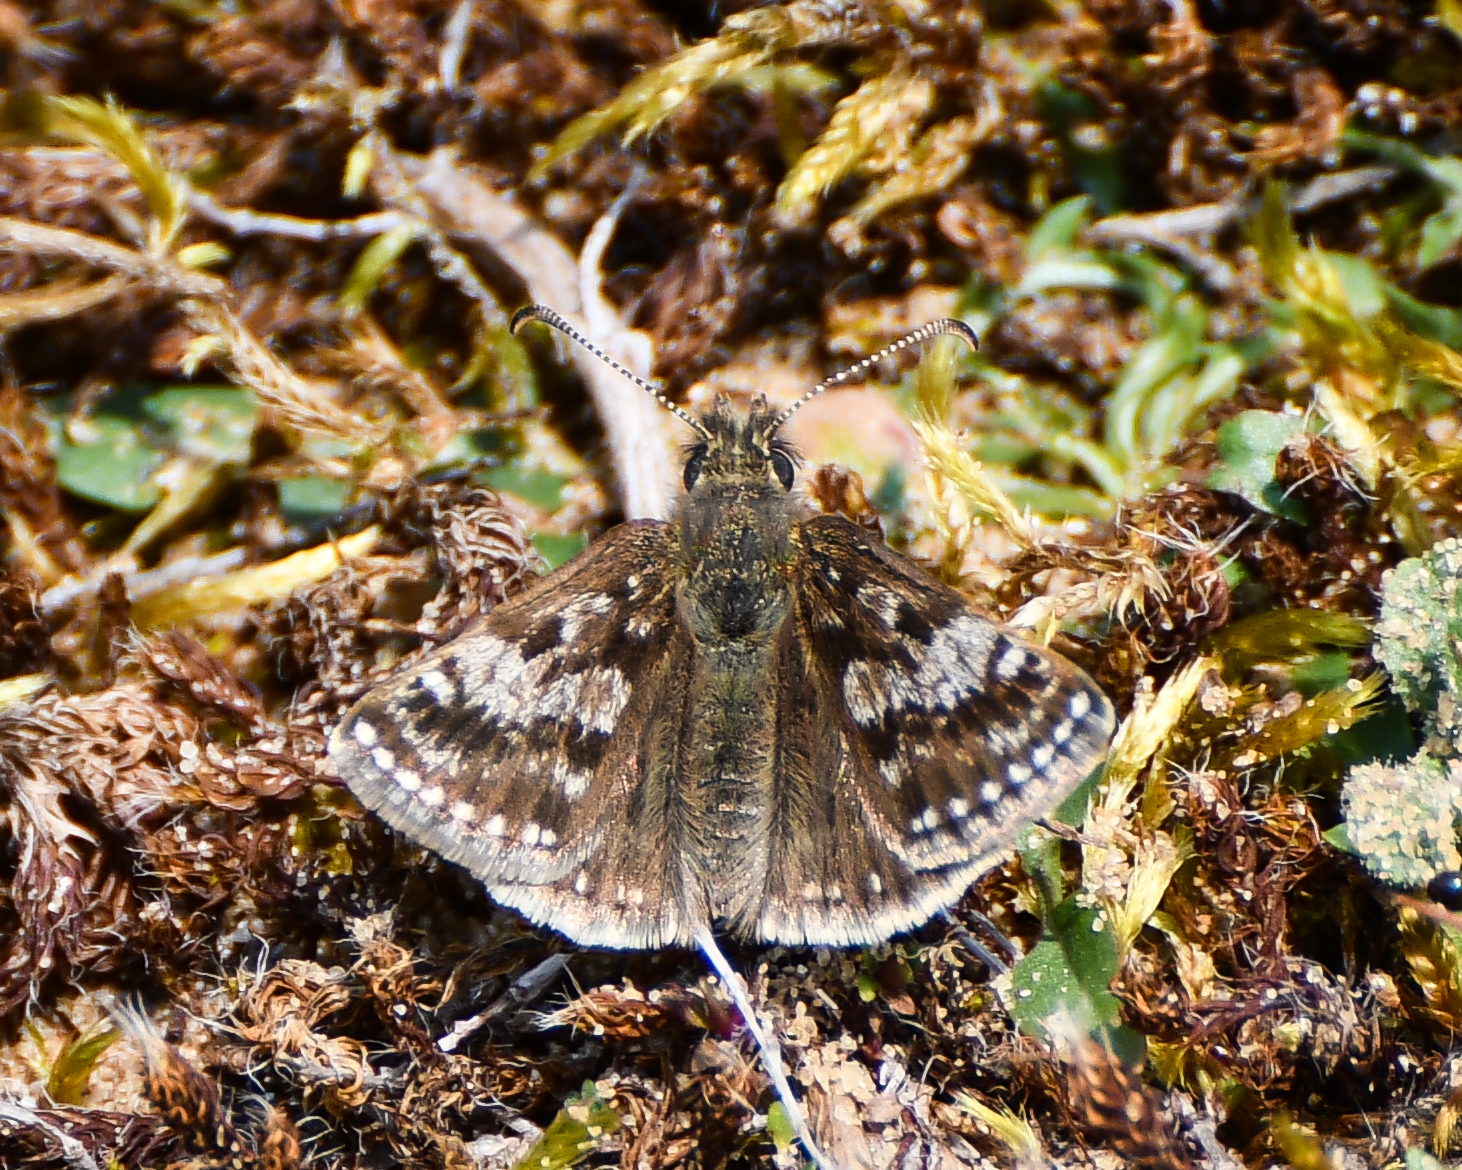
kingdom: Animalia
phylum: Arthropoda
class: Insecta
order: Lepidoptera
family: Hesperiidae
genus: Erynnis
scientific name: Erynnis tages
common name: Dingy skipper
